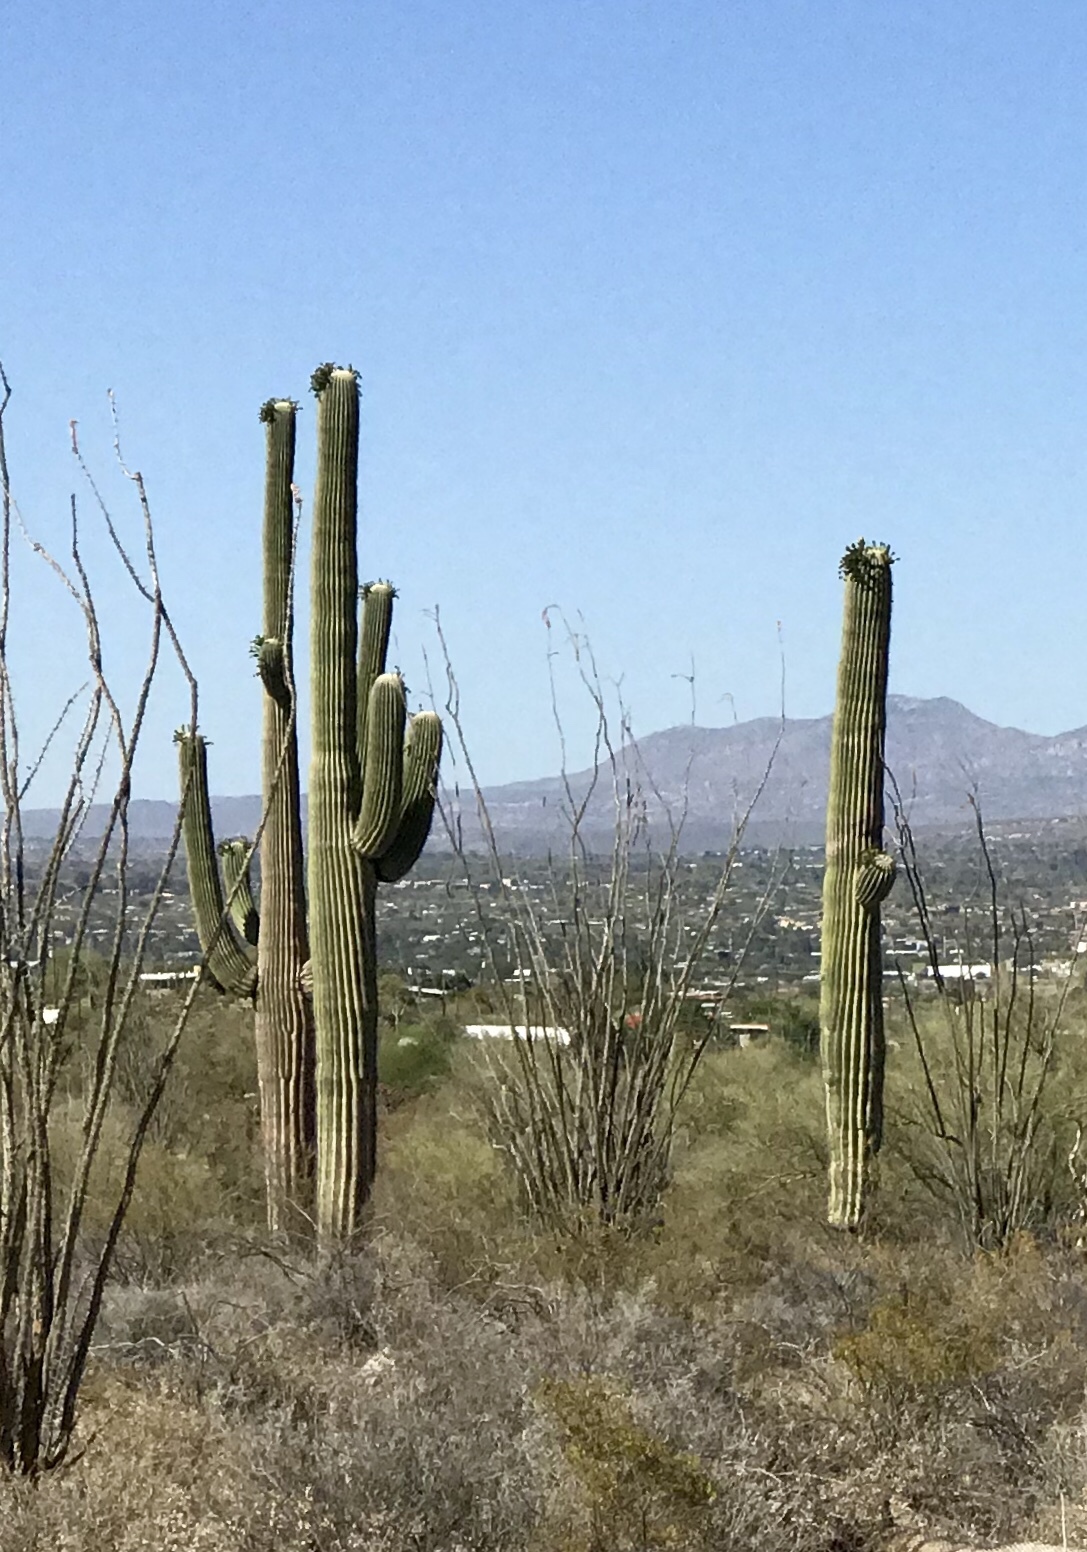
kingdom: Plantae
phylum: Tracheophyta
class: Magnoliopsida
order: Caryophyllales
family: Cactaceae
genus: Carnegiea
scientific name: Carnegiea gigantea
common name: Saguaro
